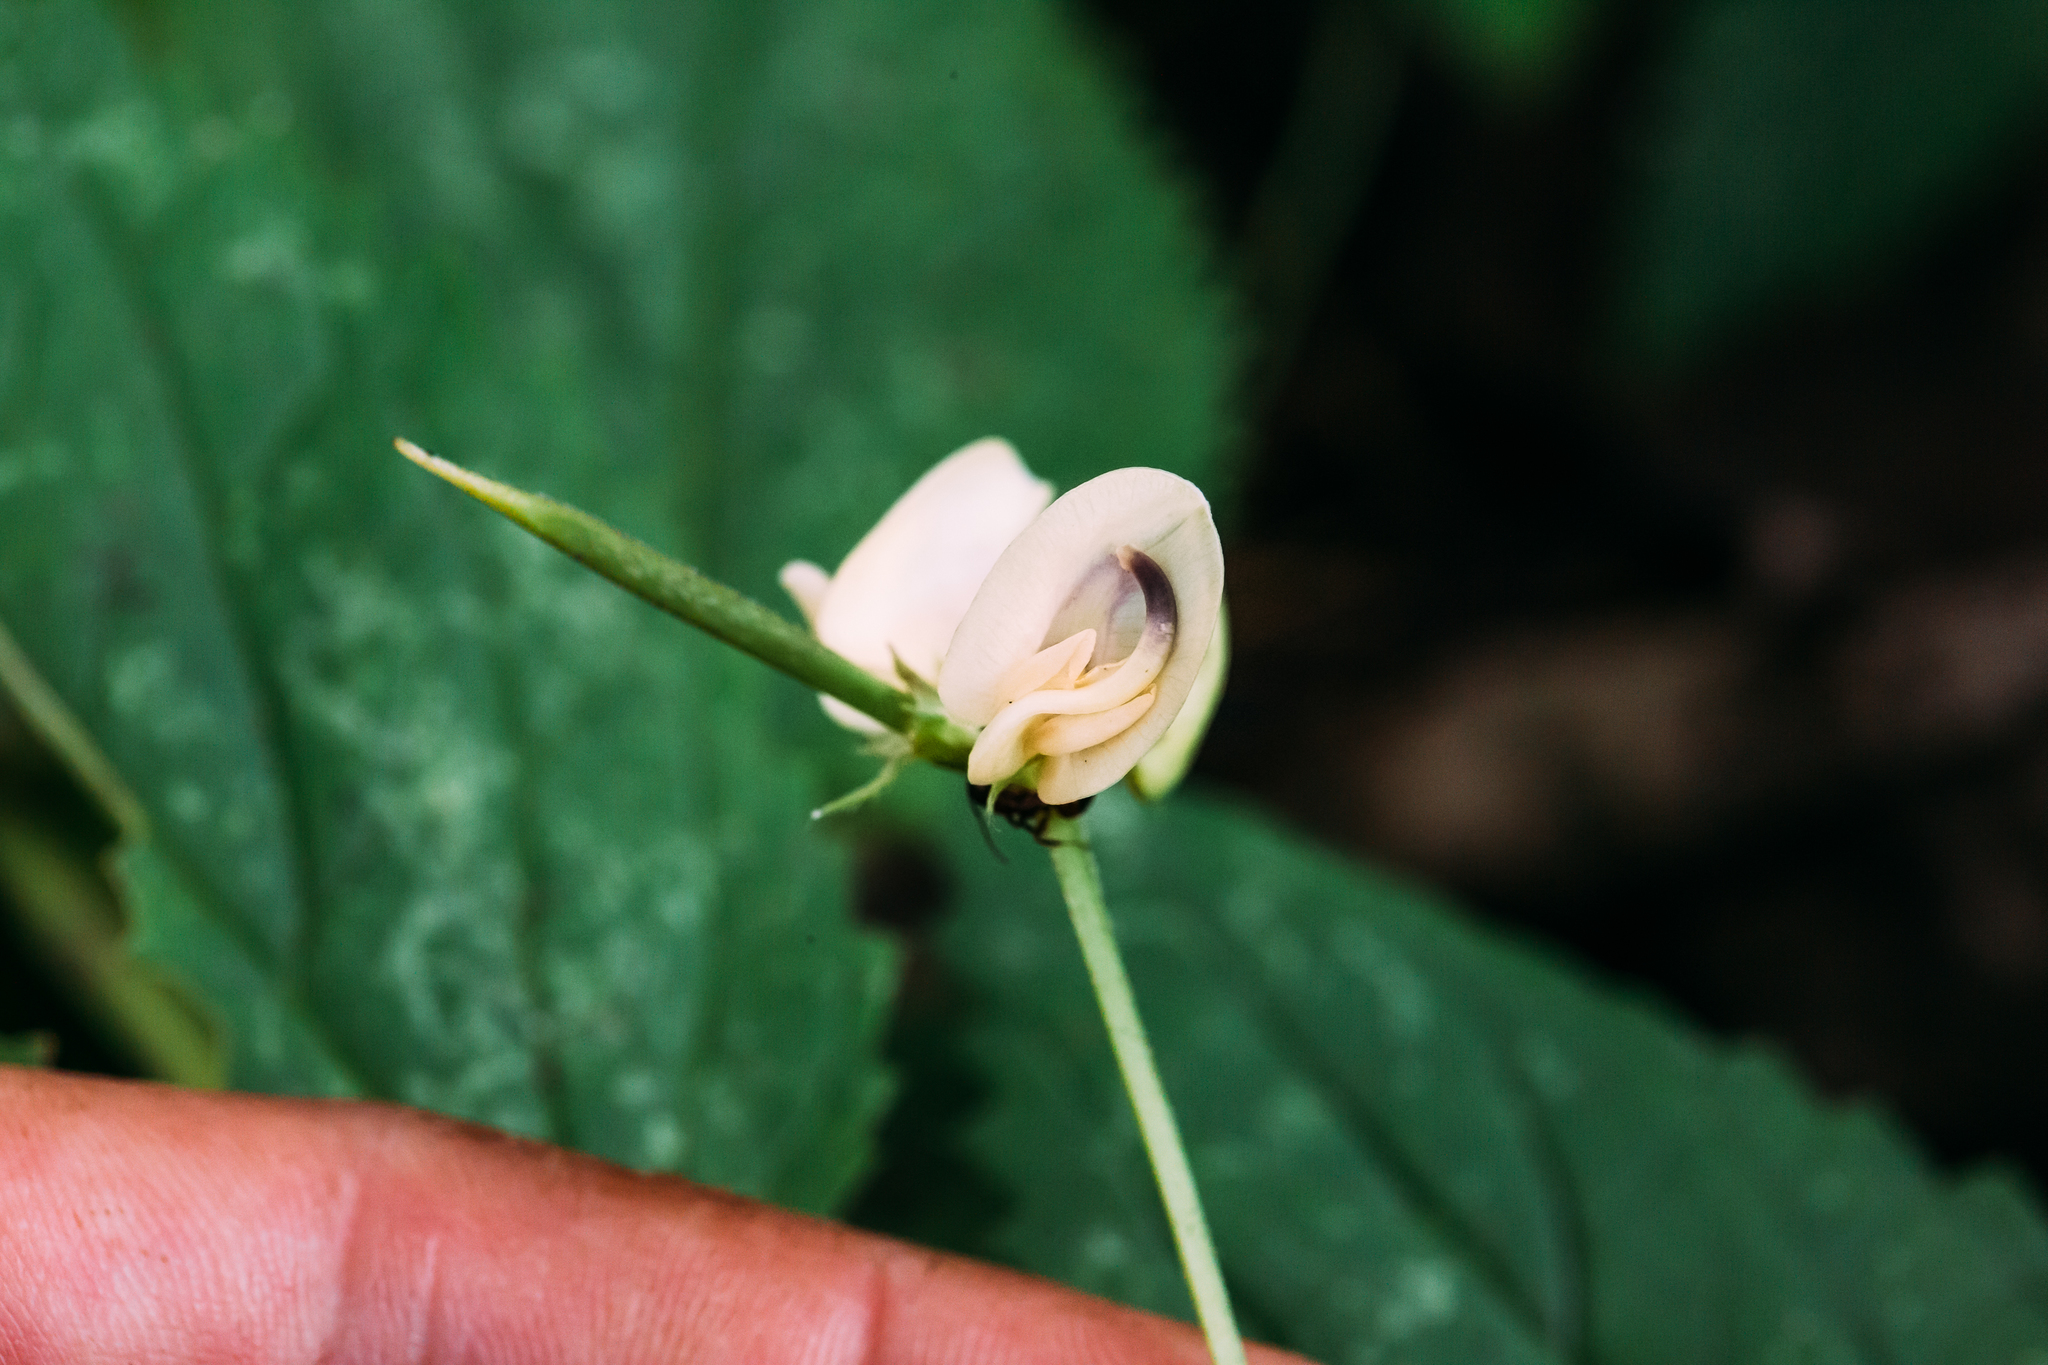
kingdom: Plantae
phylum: Tracheophyta
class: Magnoliopsida
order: Fabales
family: Fabaceae
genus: Strophostyles
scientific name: Strophostyles helvola
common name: Trailing wild bean
